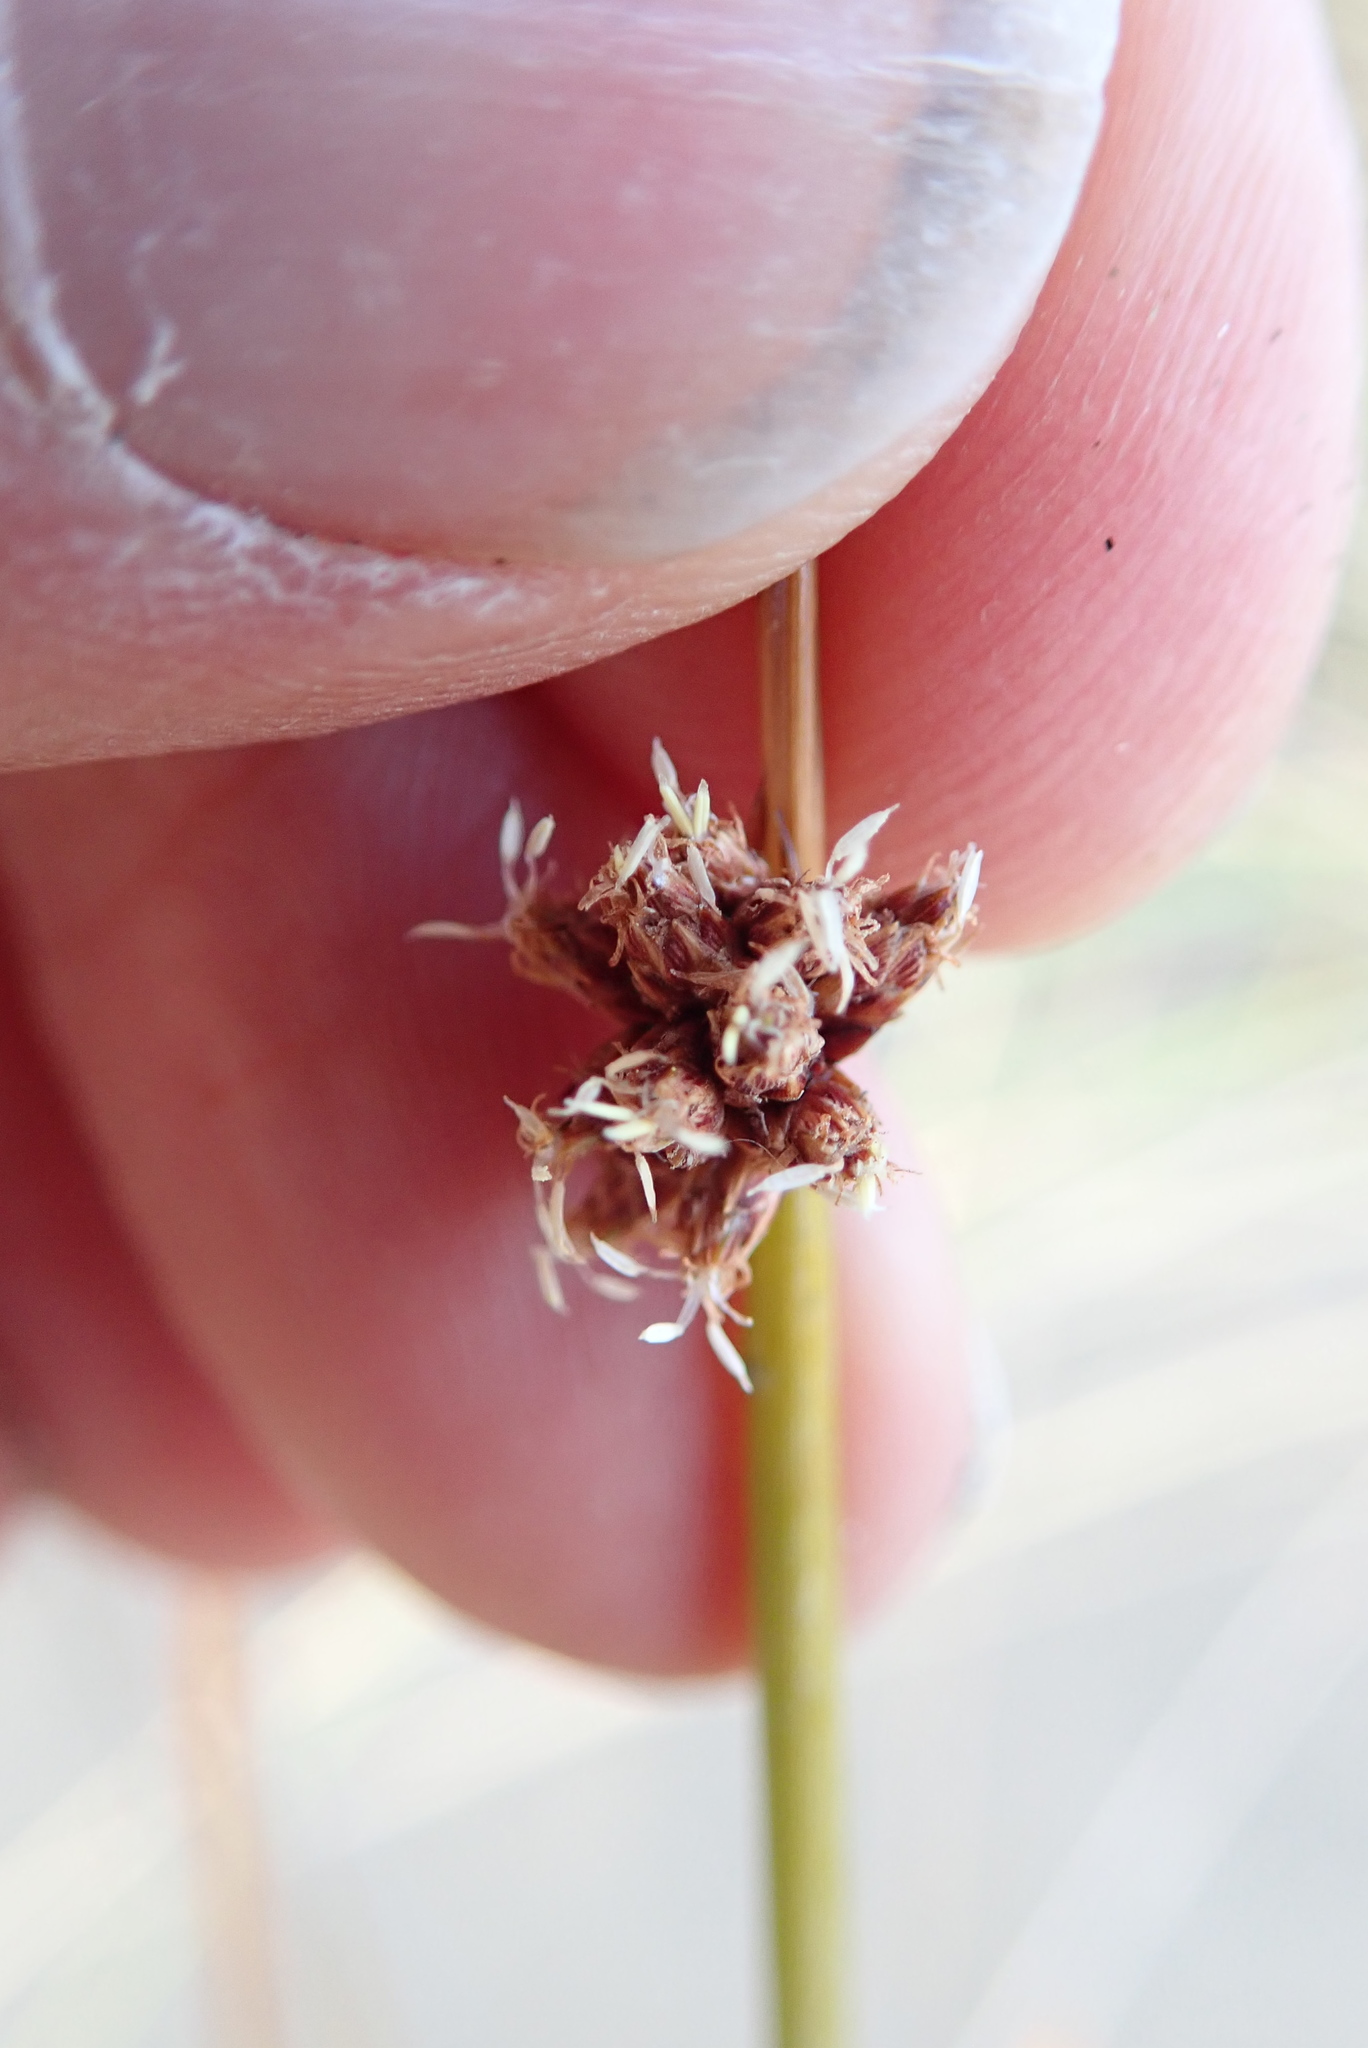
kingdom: Plantae
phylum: Tracheophyta
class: Liliopsida
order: Poales
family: Cyperaceae
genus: Ficinia
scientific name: Ficinia nodosa
